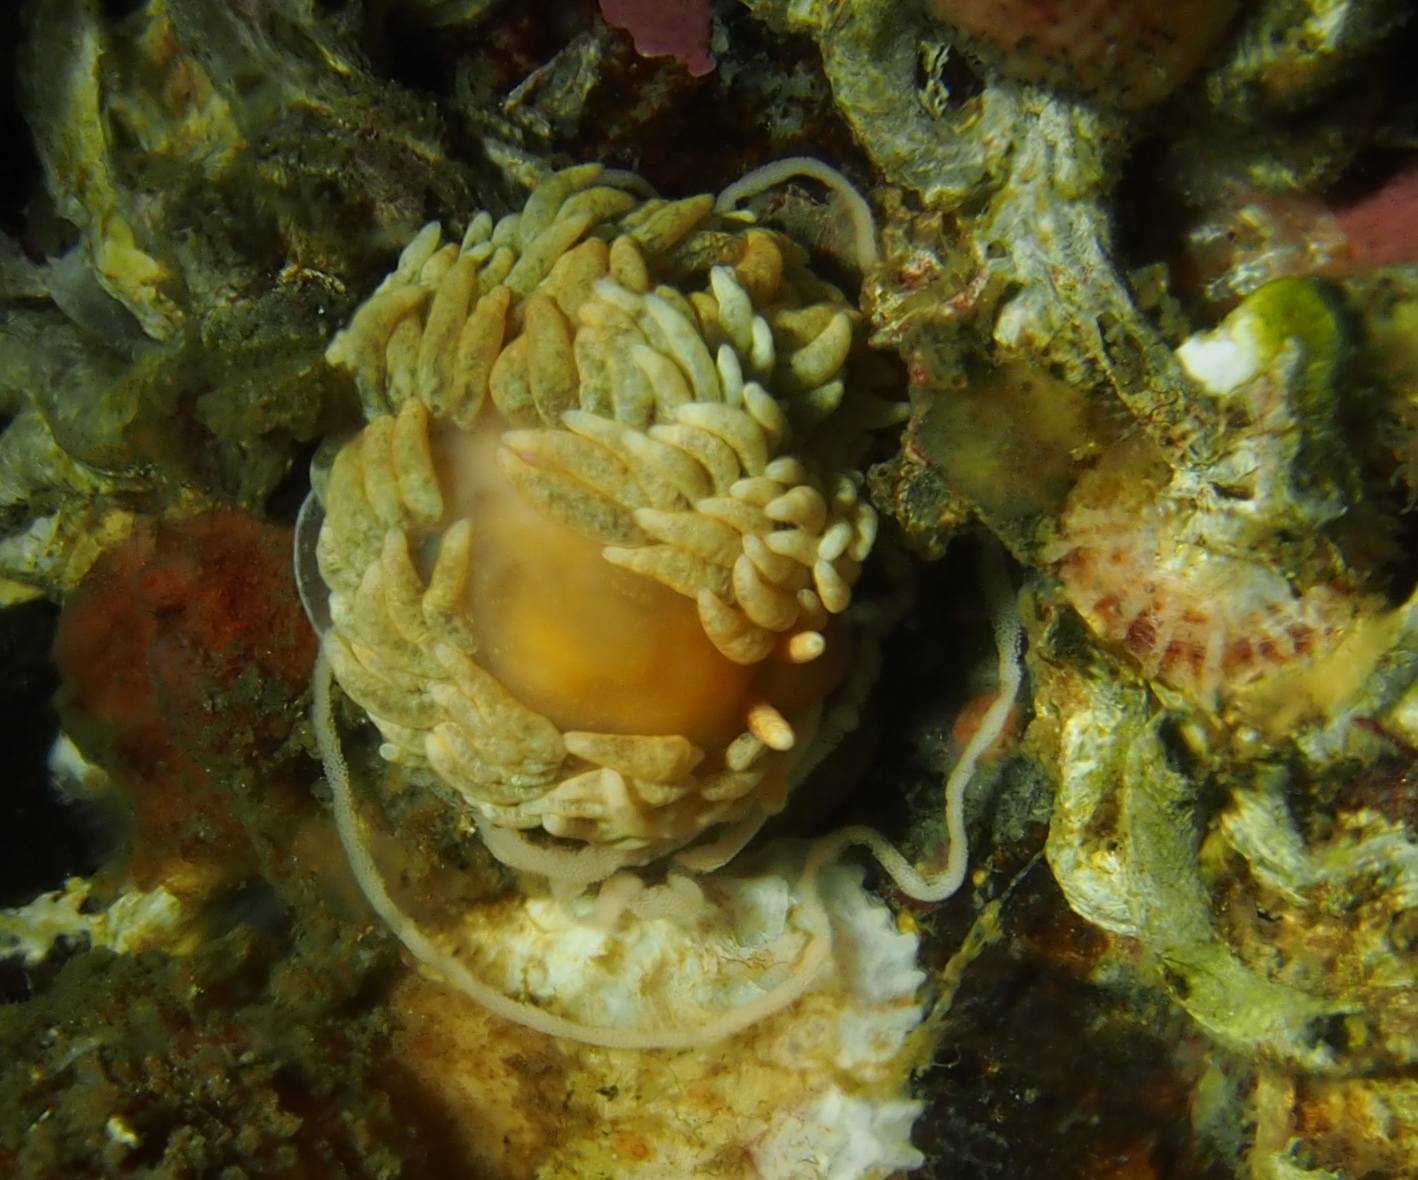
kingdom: Animalia
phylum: Mollusca
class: Gastropoda
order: Nudibranchia
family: Aeolidiidae
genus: Aeolidiella
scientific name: Aeolidiella glauca
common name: Orange-brown aeolid
